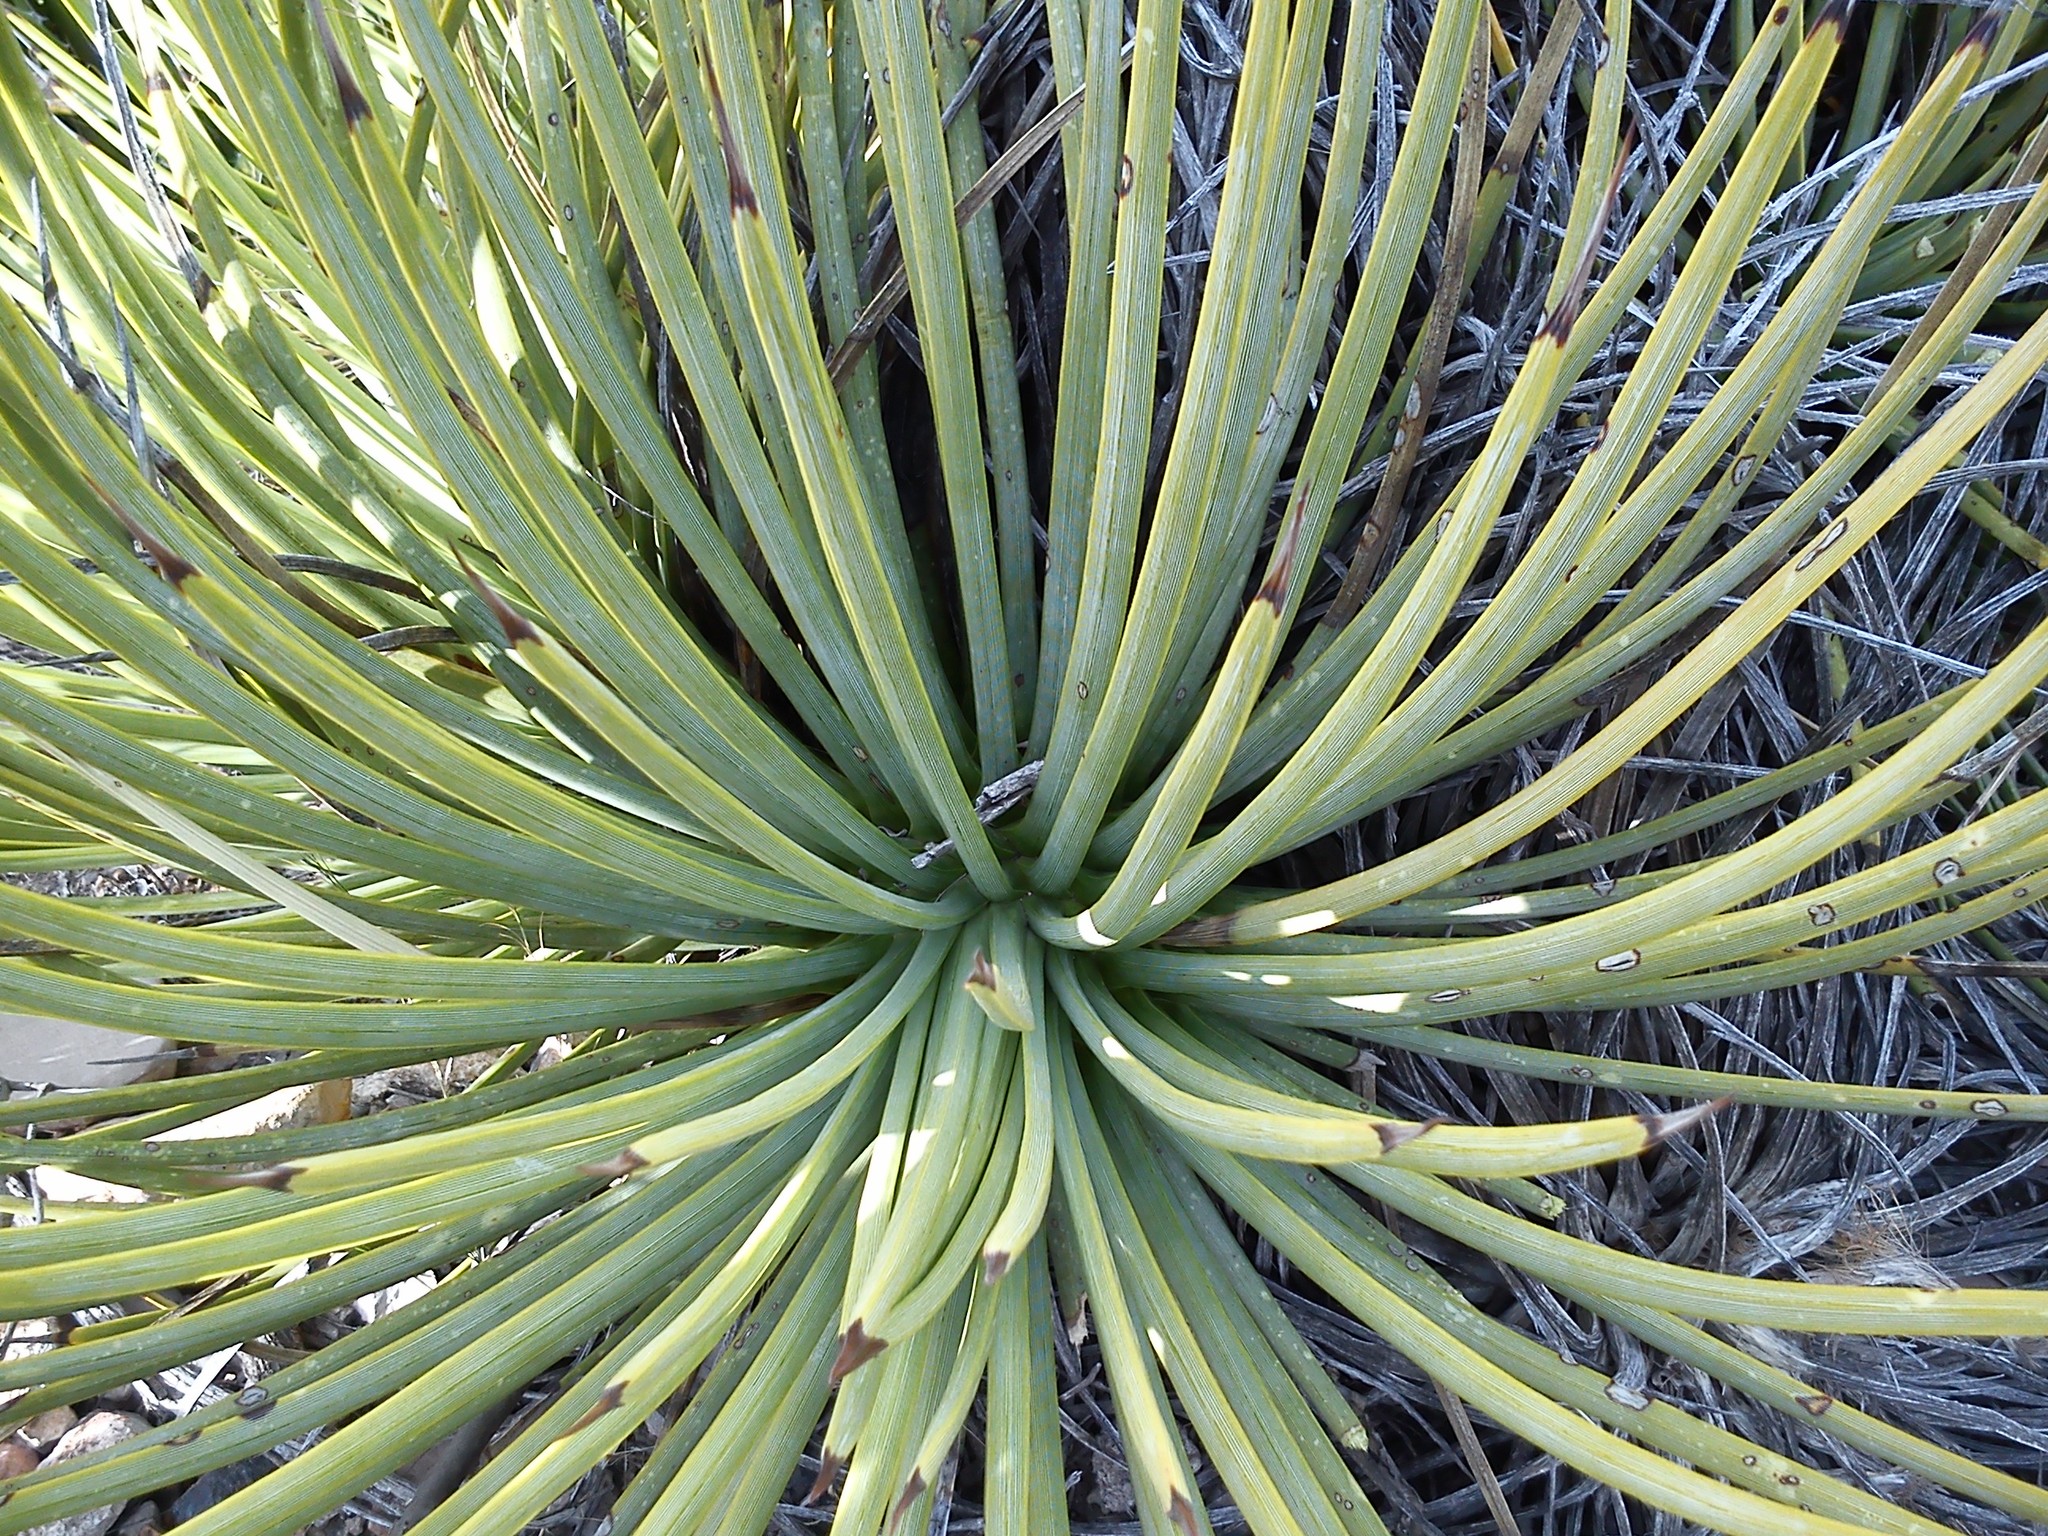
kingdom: Plantae
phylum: Tracheophyta
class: Liliopsida
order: Asparagales
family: Asparagaceae
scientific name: Asparagaceae
